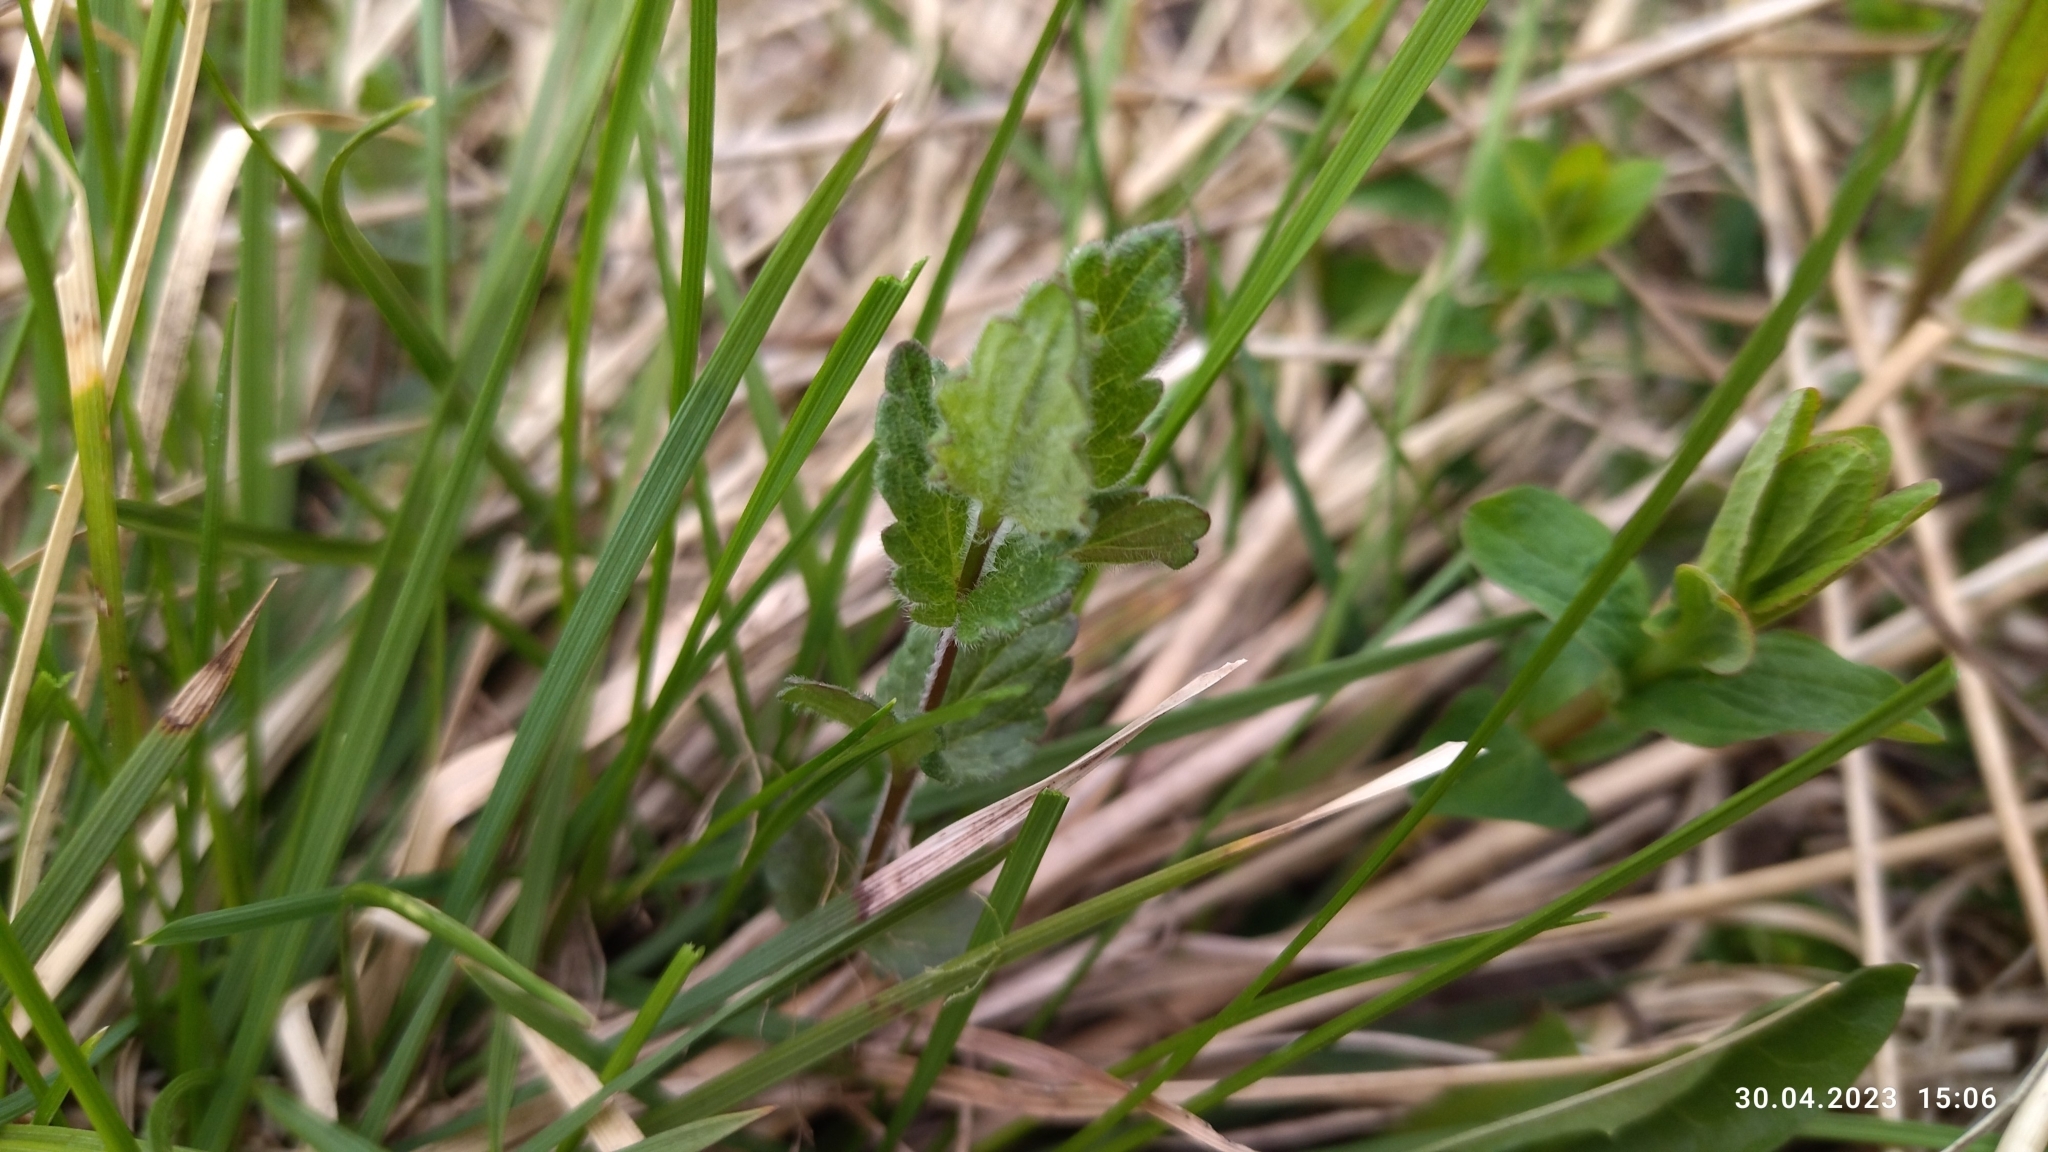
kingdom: Plantae
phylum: Tracheophyta
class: Magnoliopsida
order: Lamiales
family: Plantaginaceae
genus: Veronica
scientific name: Veronica chamaedrys
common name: Germander speedwell
